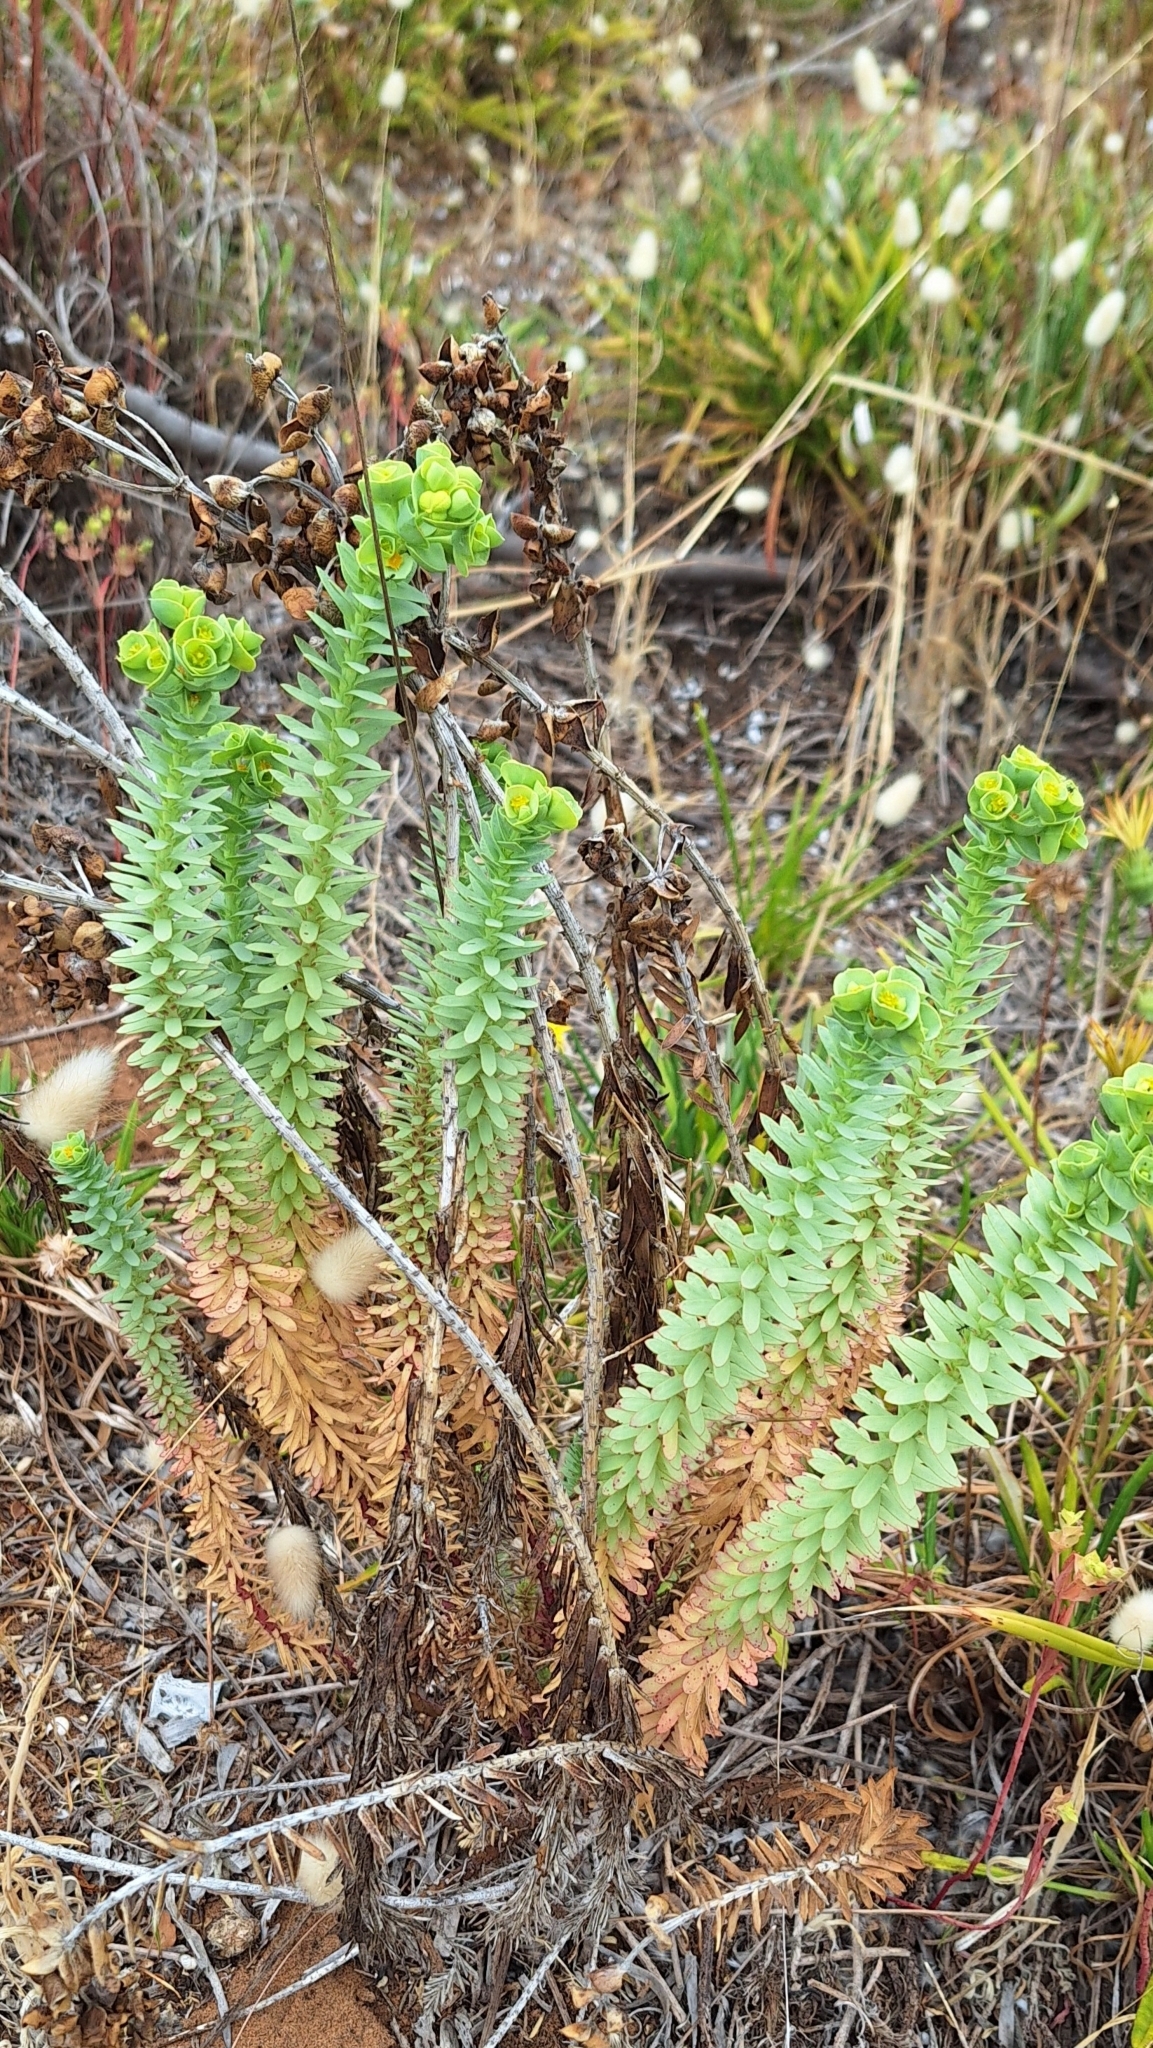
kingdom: Plantae
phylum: Tracheophyta
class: Magnoliopsida
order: Malpighiales
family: Euphorbiaceae
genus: Euphorbia
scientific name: Euphorbia paralias
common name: Sea spurge
